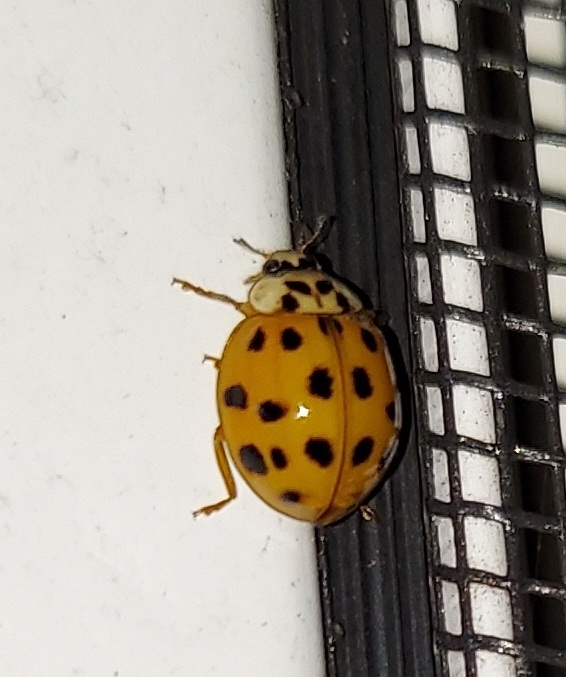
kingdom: Animalia
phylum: Arthropoda
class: Insecta
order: Coleoptera
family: Coccinellidae
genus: Harmonia
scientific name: Harmonia axyridis
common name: Harlequin ladybird
